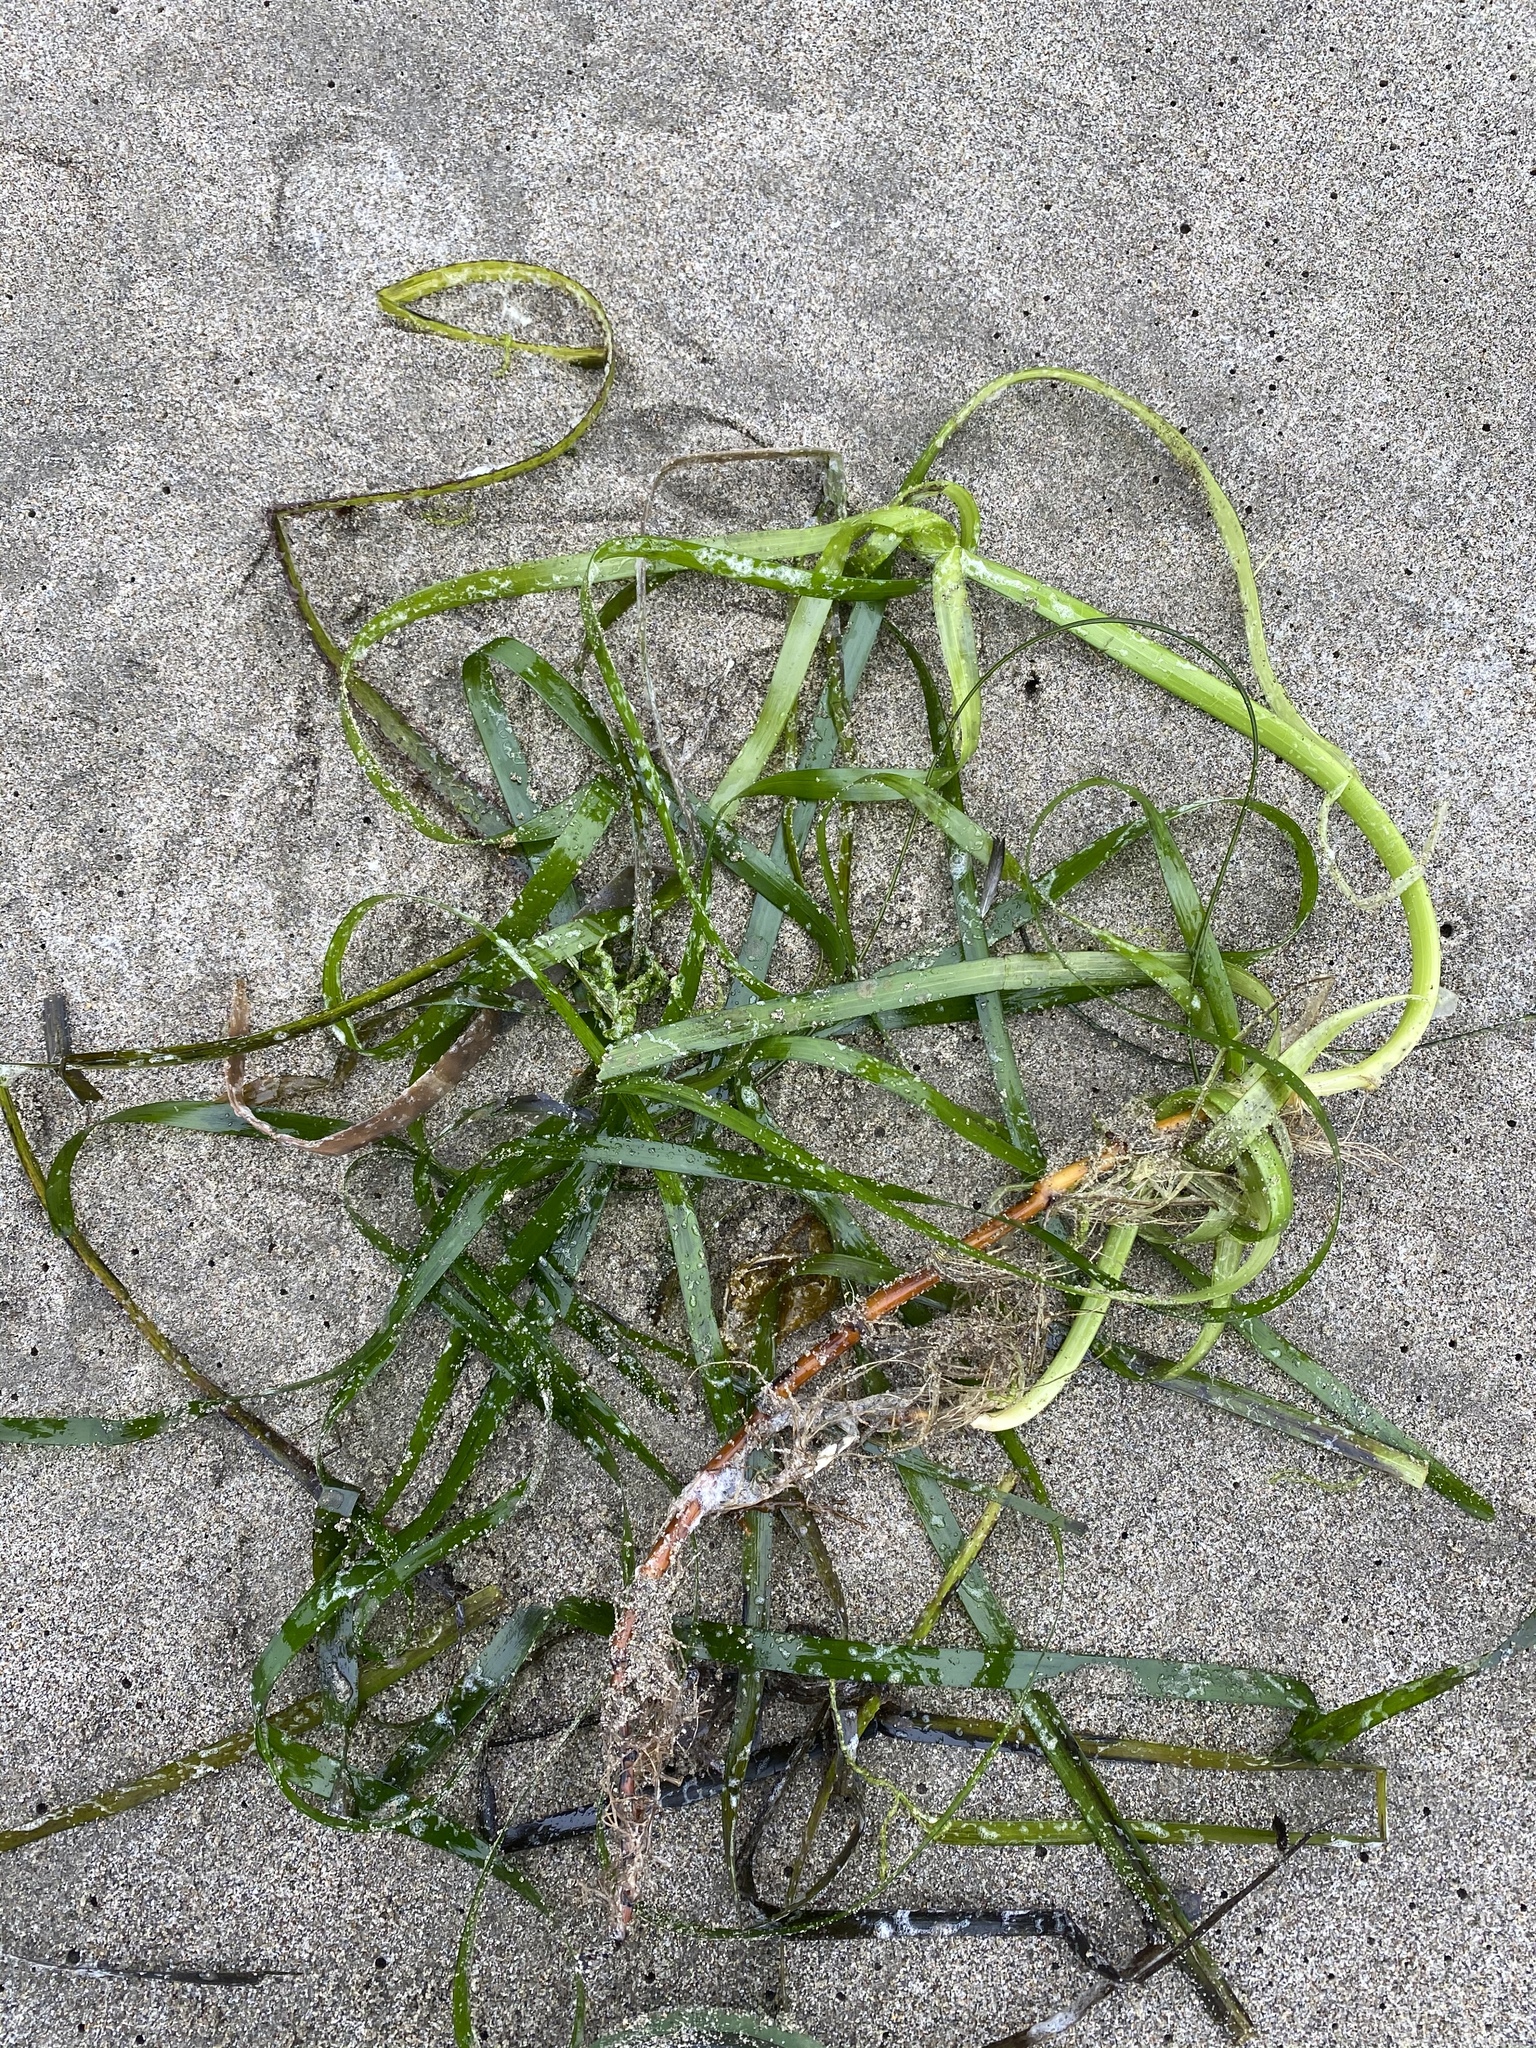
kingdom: Plantae
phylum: Tracheophyta
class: Liliopsida
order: Alismatales
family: Zosteraceae
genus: Zostera
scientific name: Zostera marina
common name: Eelgrass
